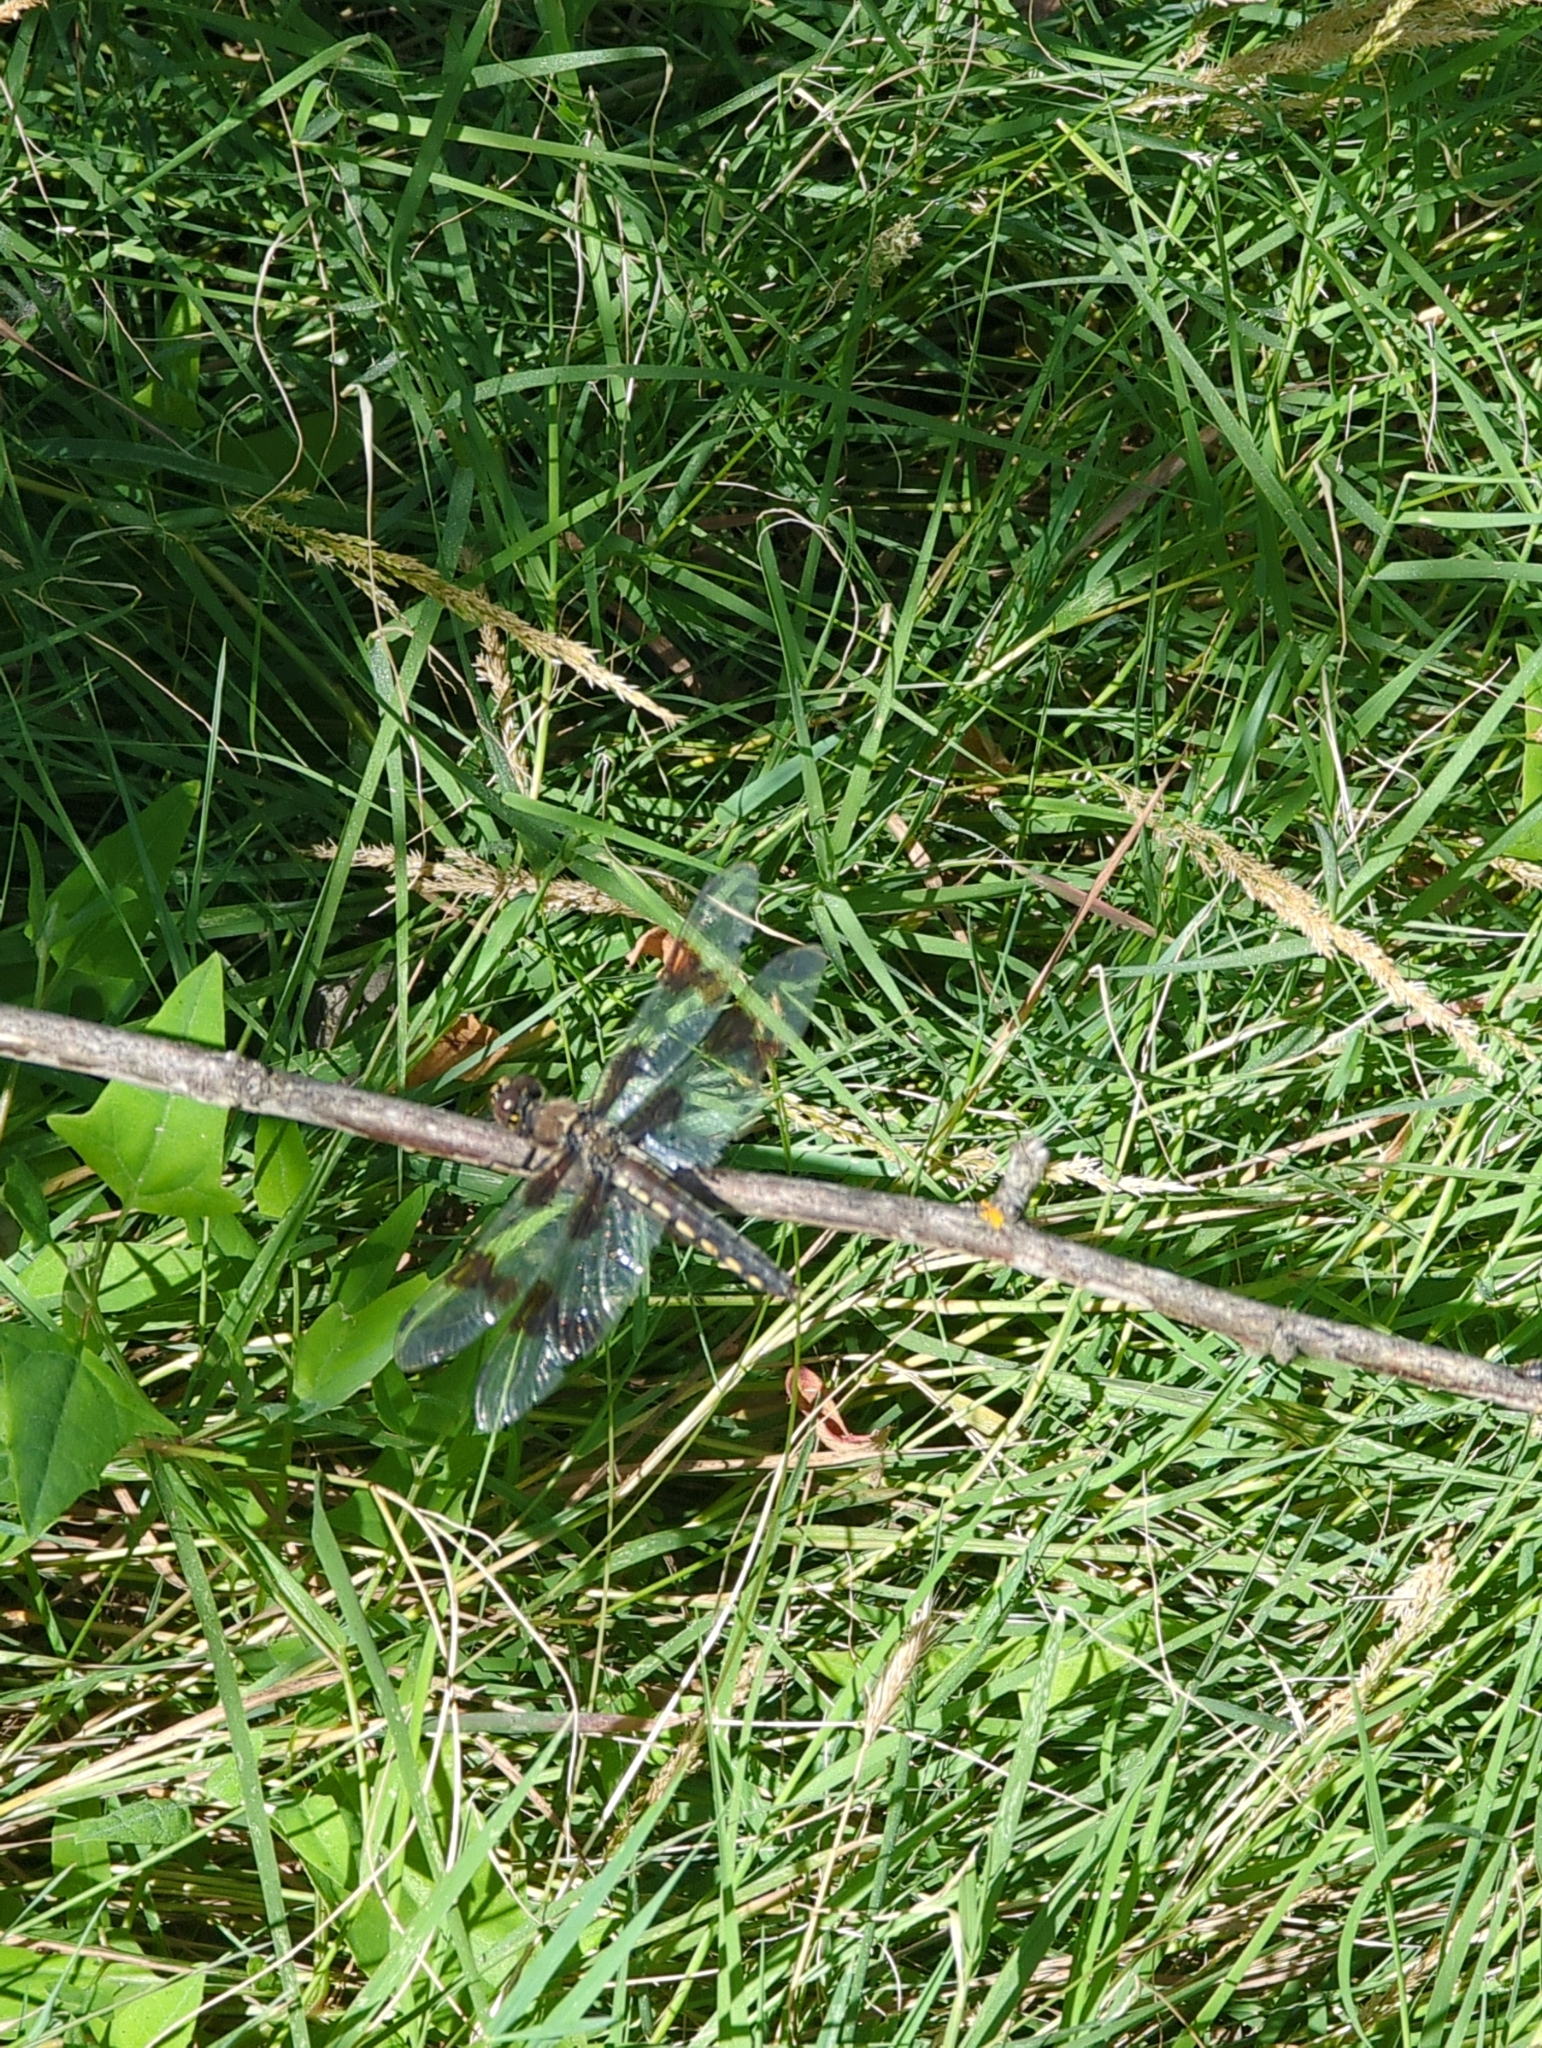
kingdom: Animalia
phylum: Arthropoda
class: Insecta
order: Odonata
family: Libellulidae
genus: Libellula
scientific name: Libellula forensis
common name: Eight-spotted skimmer
